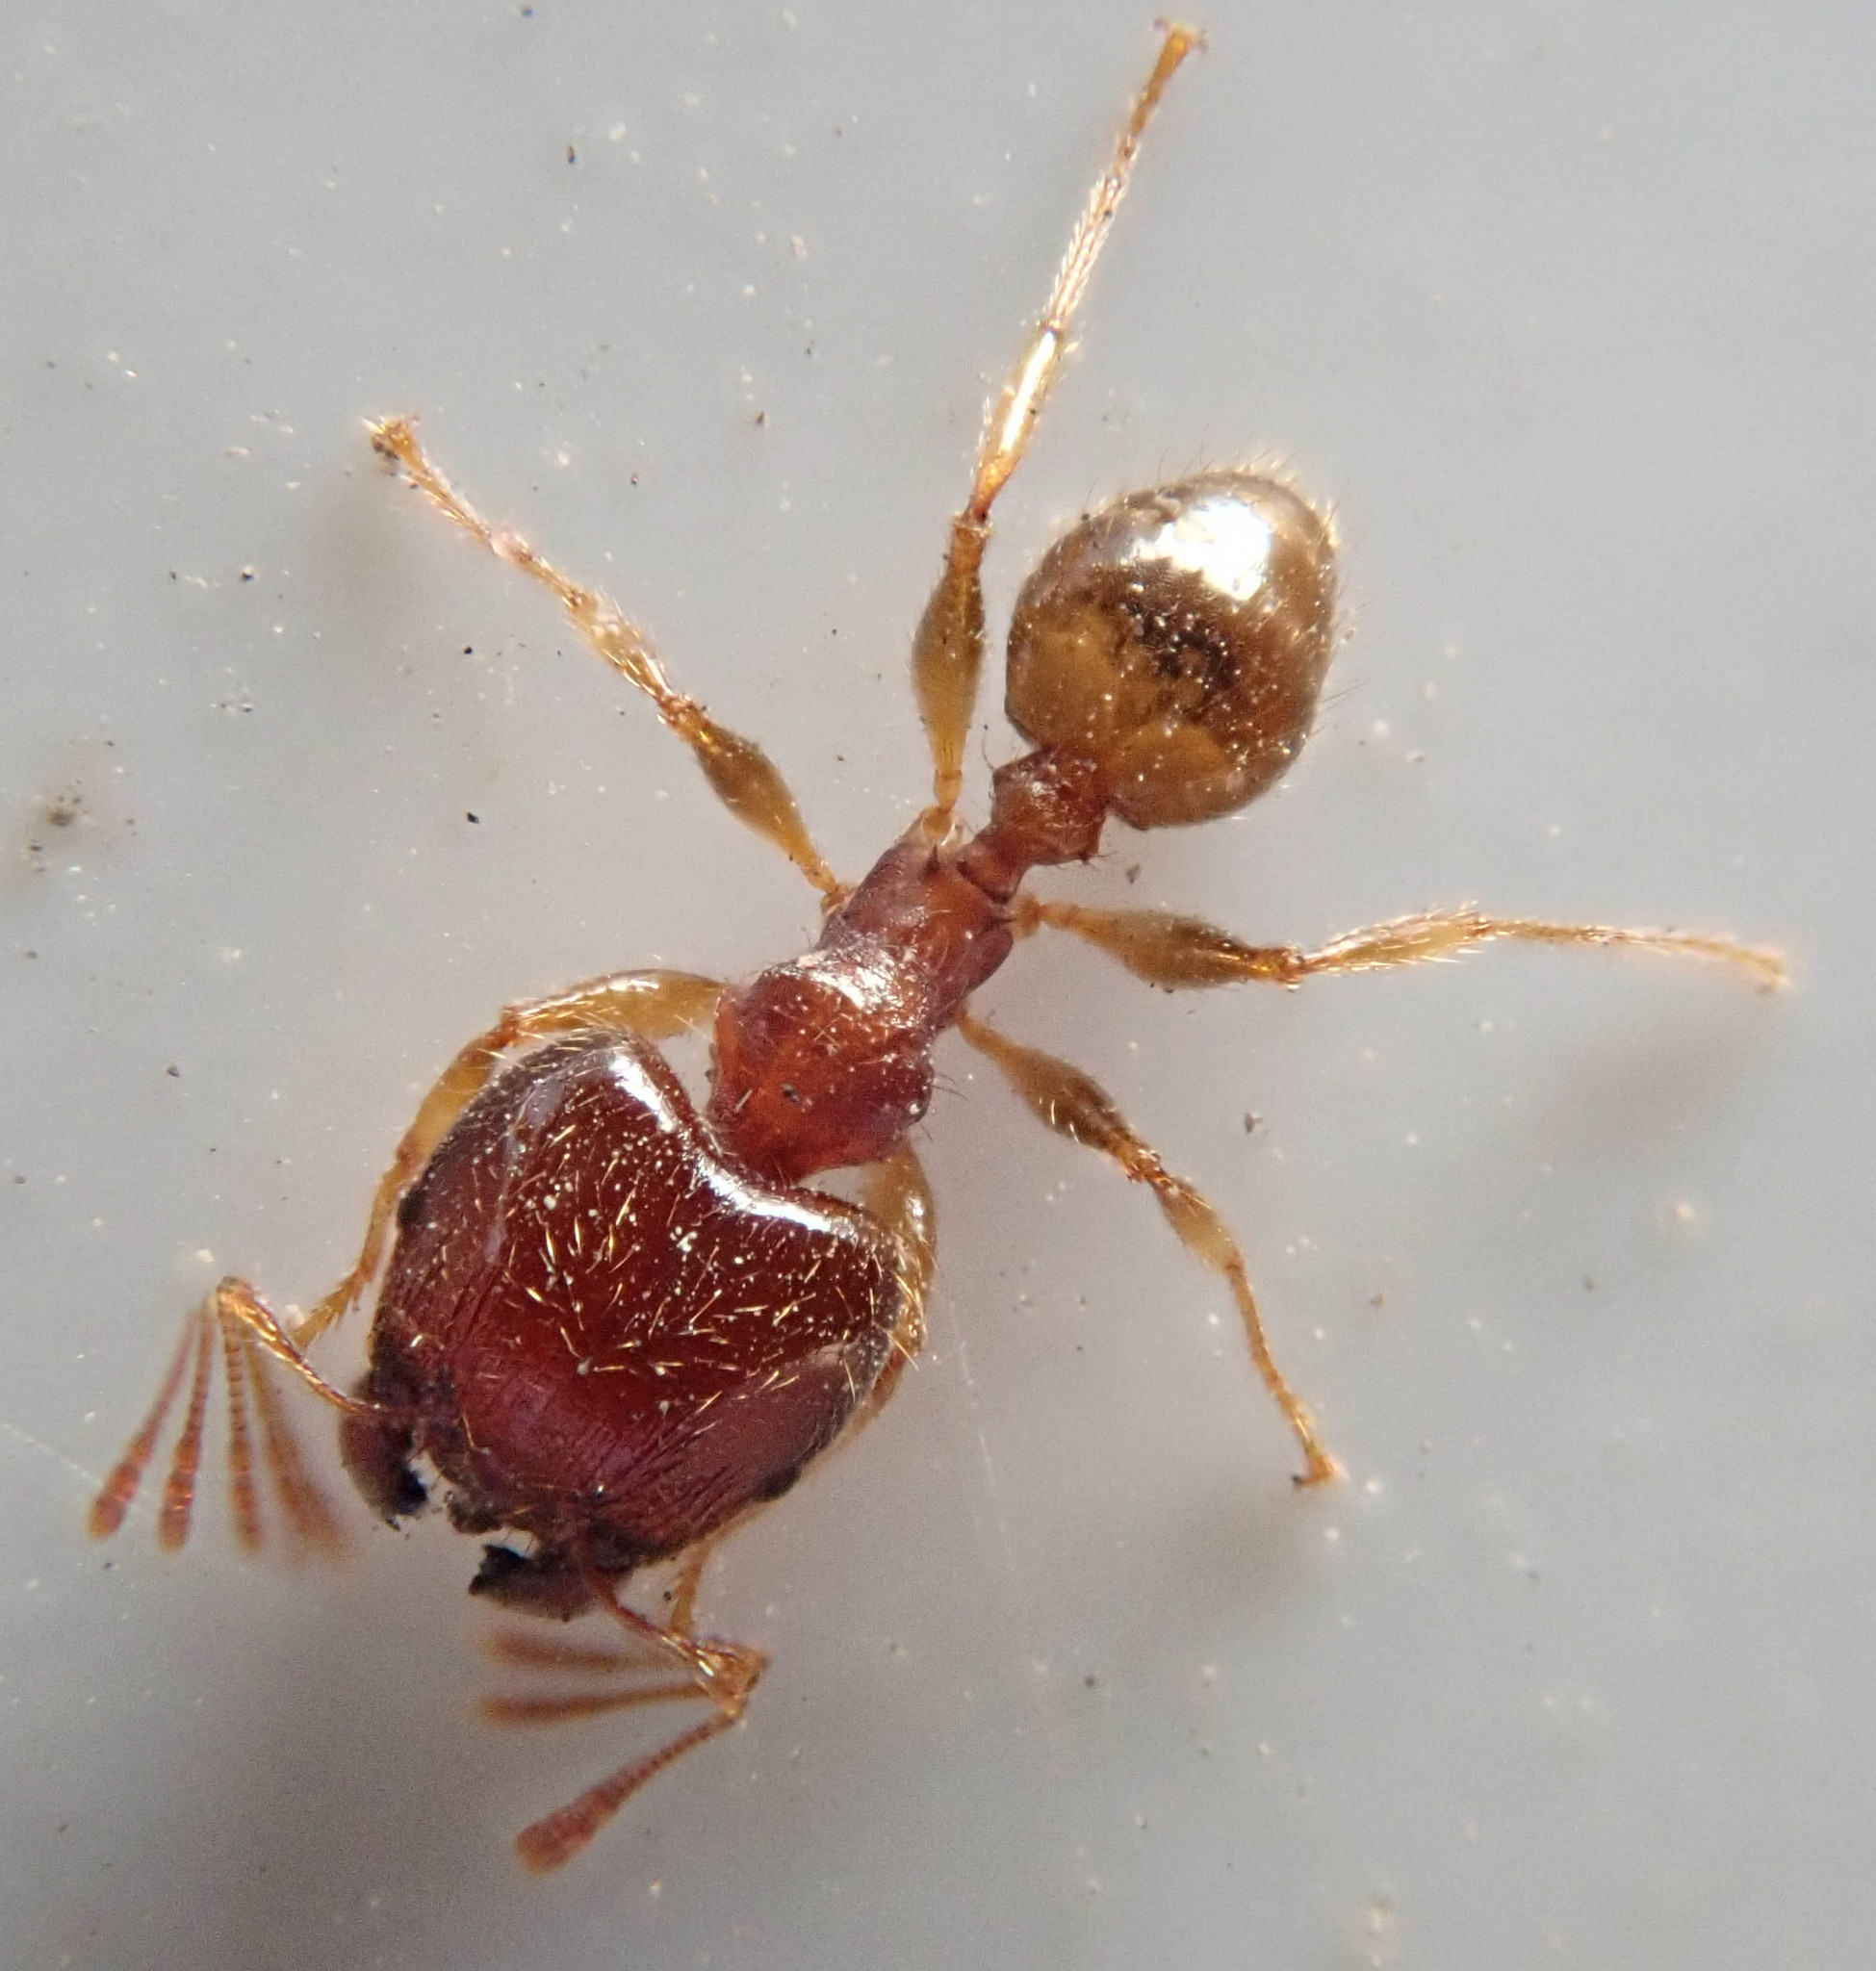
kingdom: Animalia
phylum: Arthropoda
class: Insecta
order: Hymenoptera
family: Formicidae
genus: Pheidole
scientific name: Pheidole megacephala
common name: Bigheaded ant
